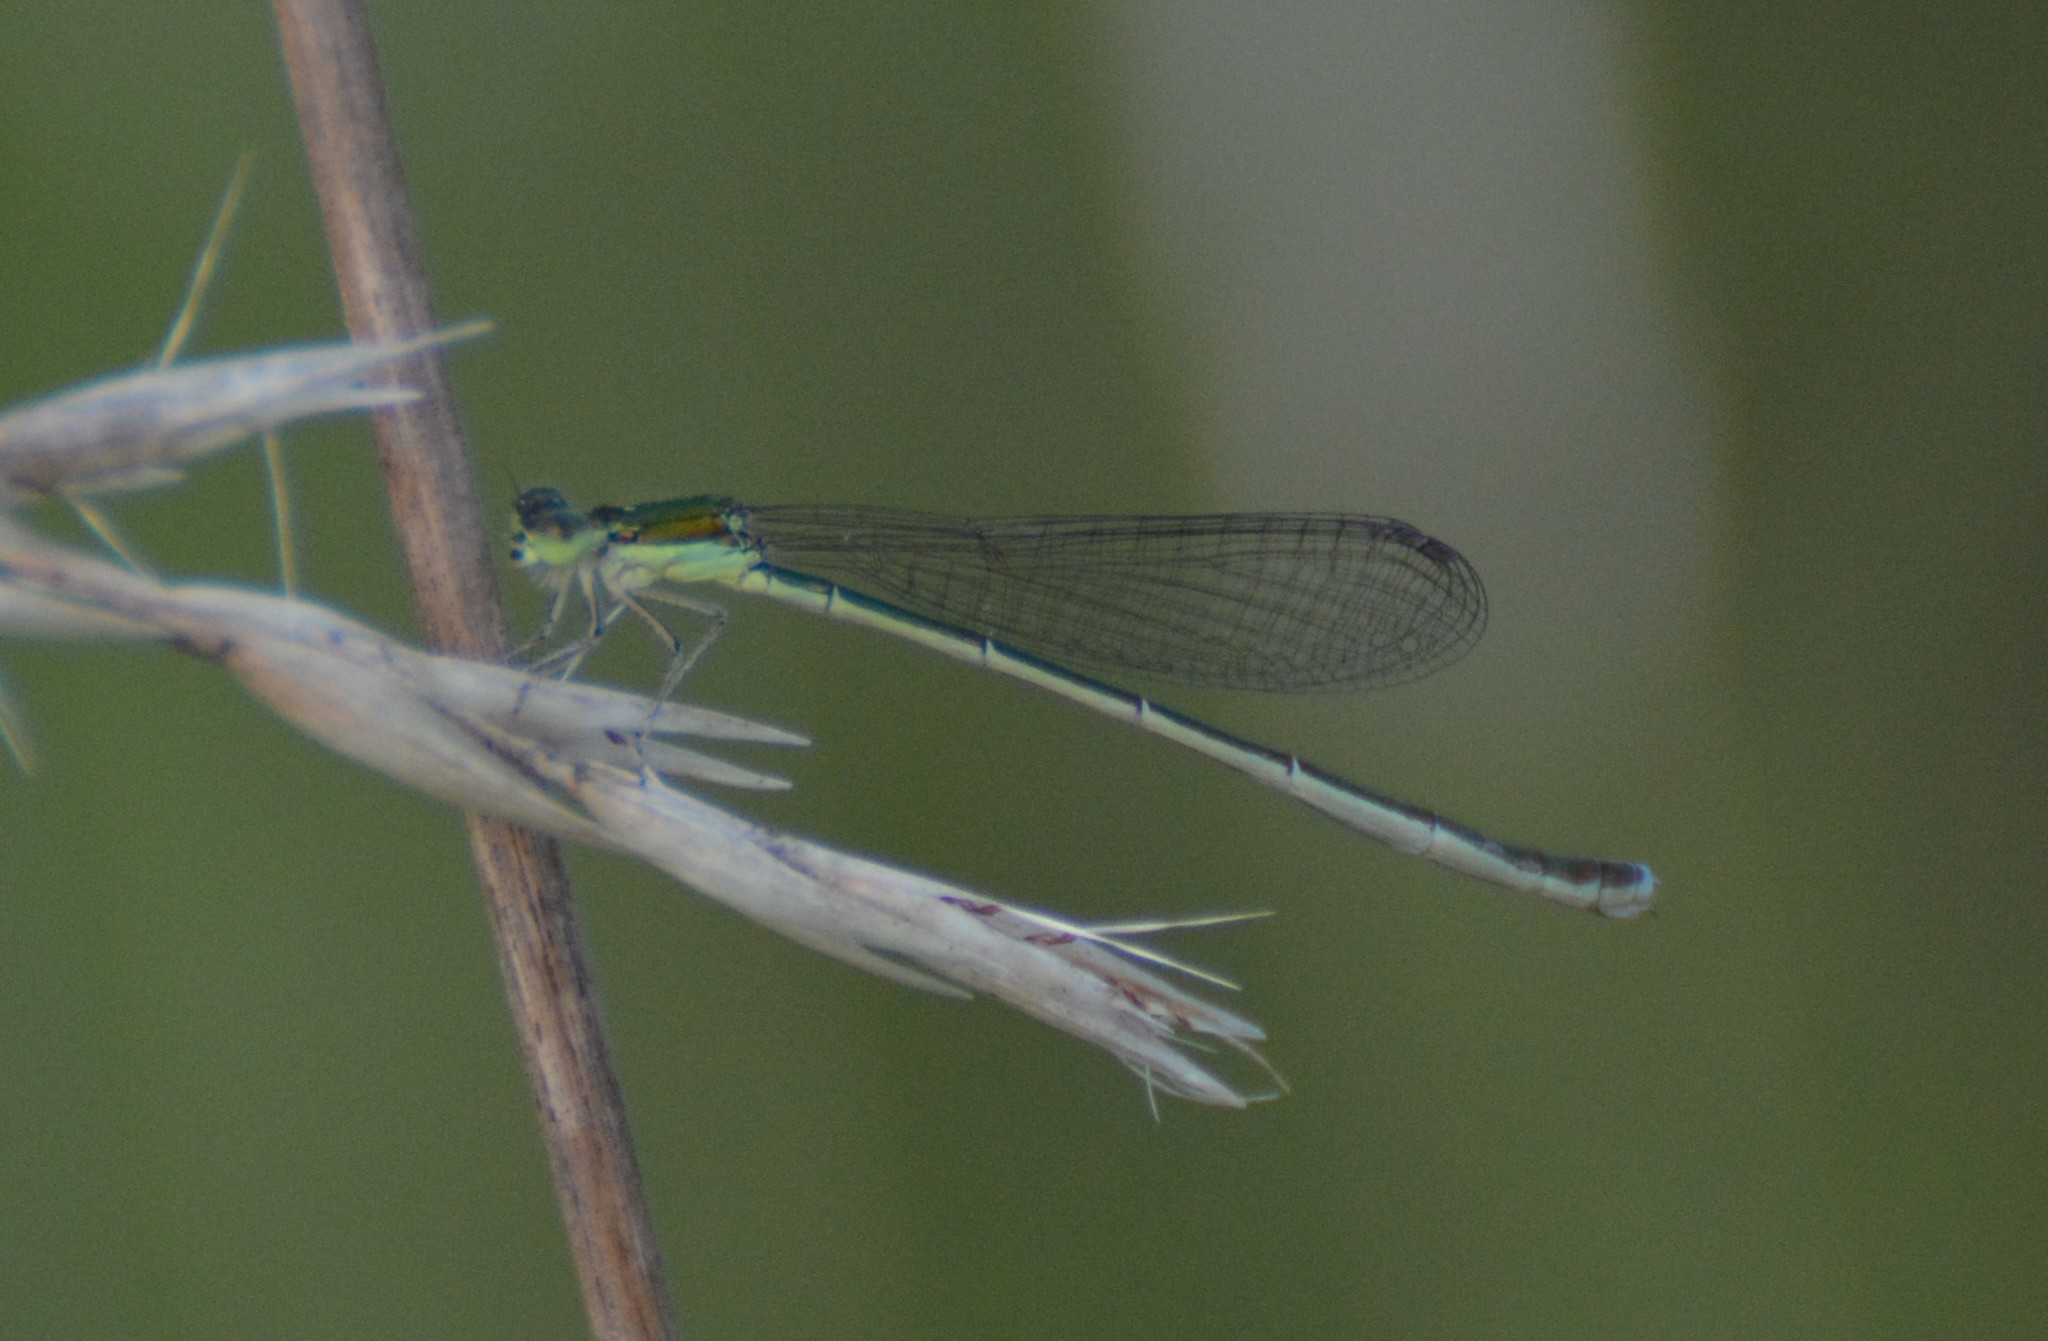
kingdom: Animalia
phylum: Arthropoda
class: Insecta
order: Odonata
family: Coenagrionidae
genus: Nehalennia
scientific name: Nehalennia irene
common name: Sedge sprite
